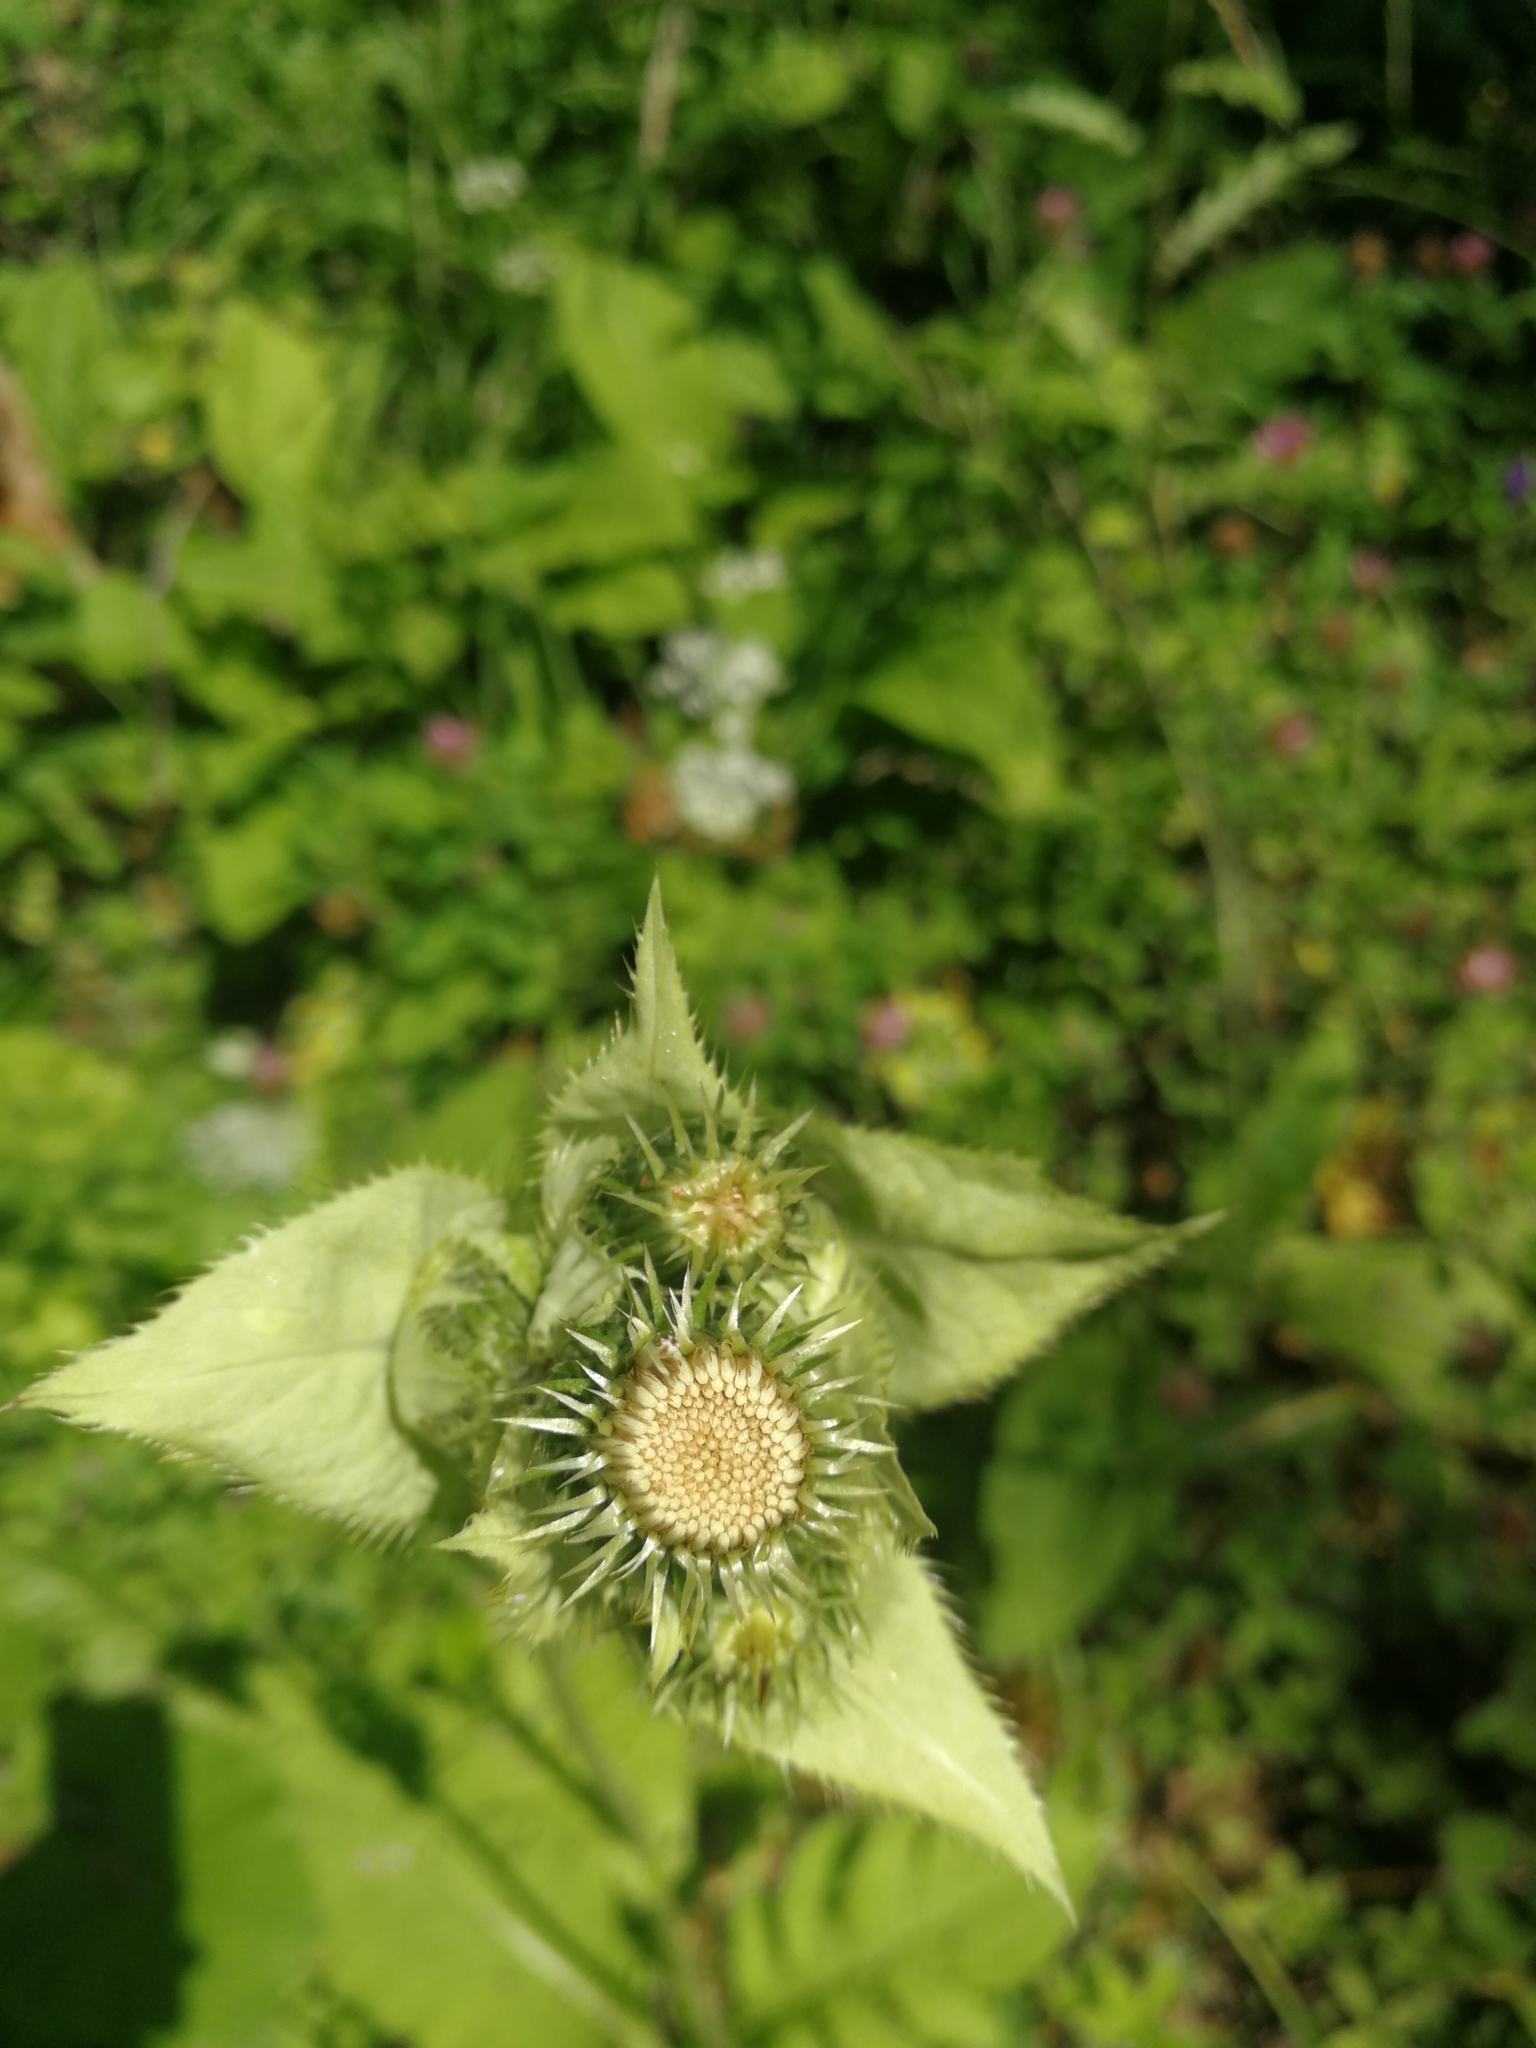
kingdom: Plantae
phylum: Tracheophyta
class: Magnoliopsida
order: Asterales
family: Asteraceae
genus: Cirsium
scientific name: Cirsium oleraceum
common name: Cabbage thistle
